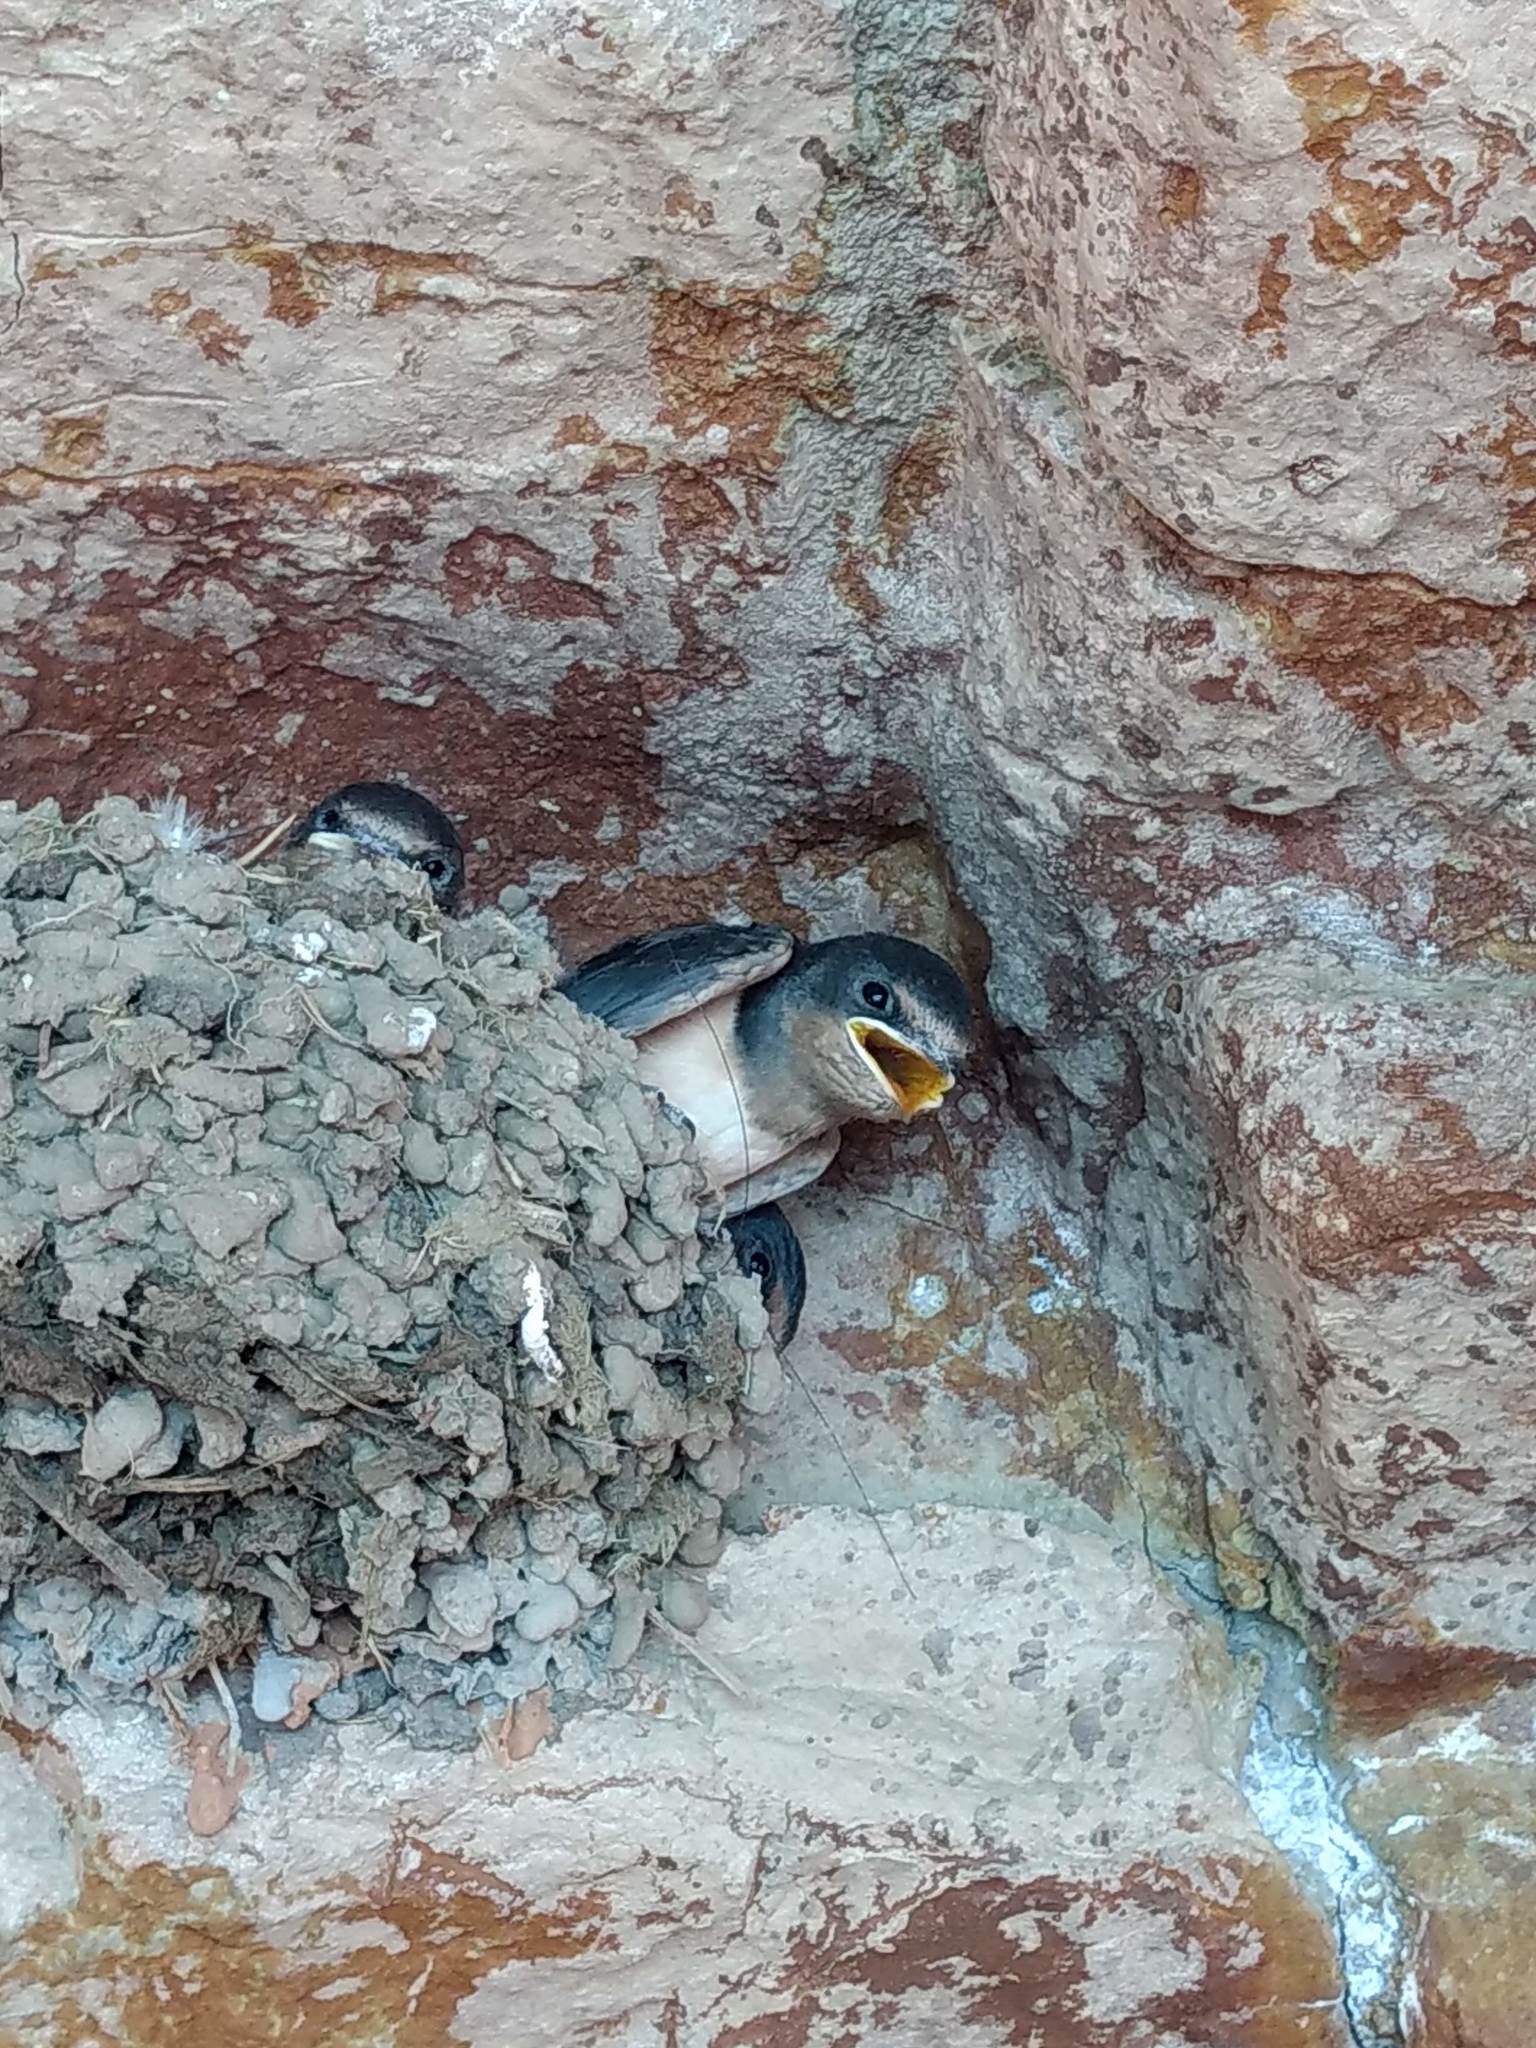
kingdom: Animalia
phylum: Chordata
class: Aves
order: Passeriformes
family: Hirundinidae
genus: Hirundo
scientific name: Hirundo rustica
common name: Barn swallow
